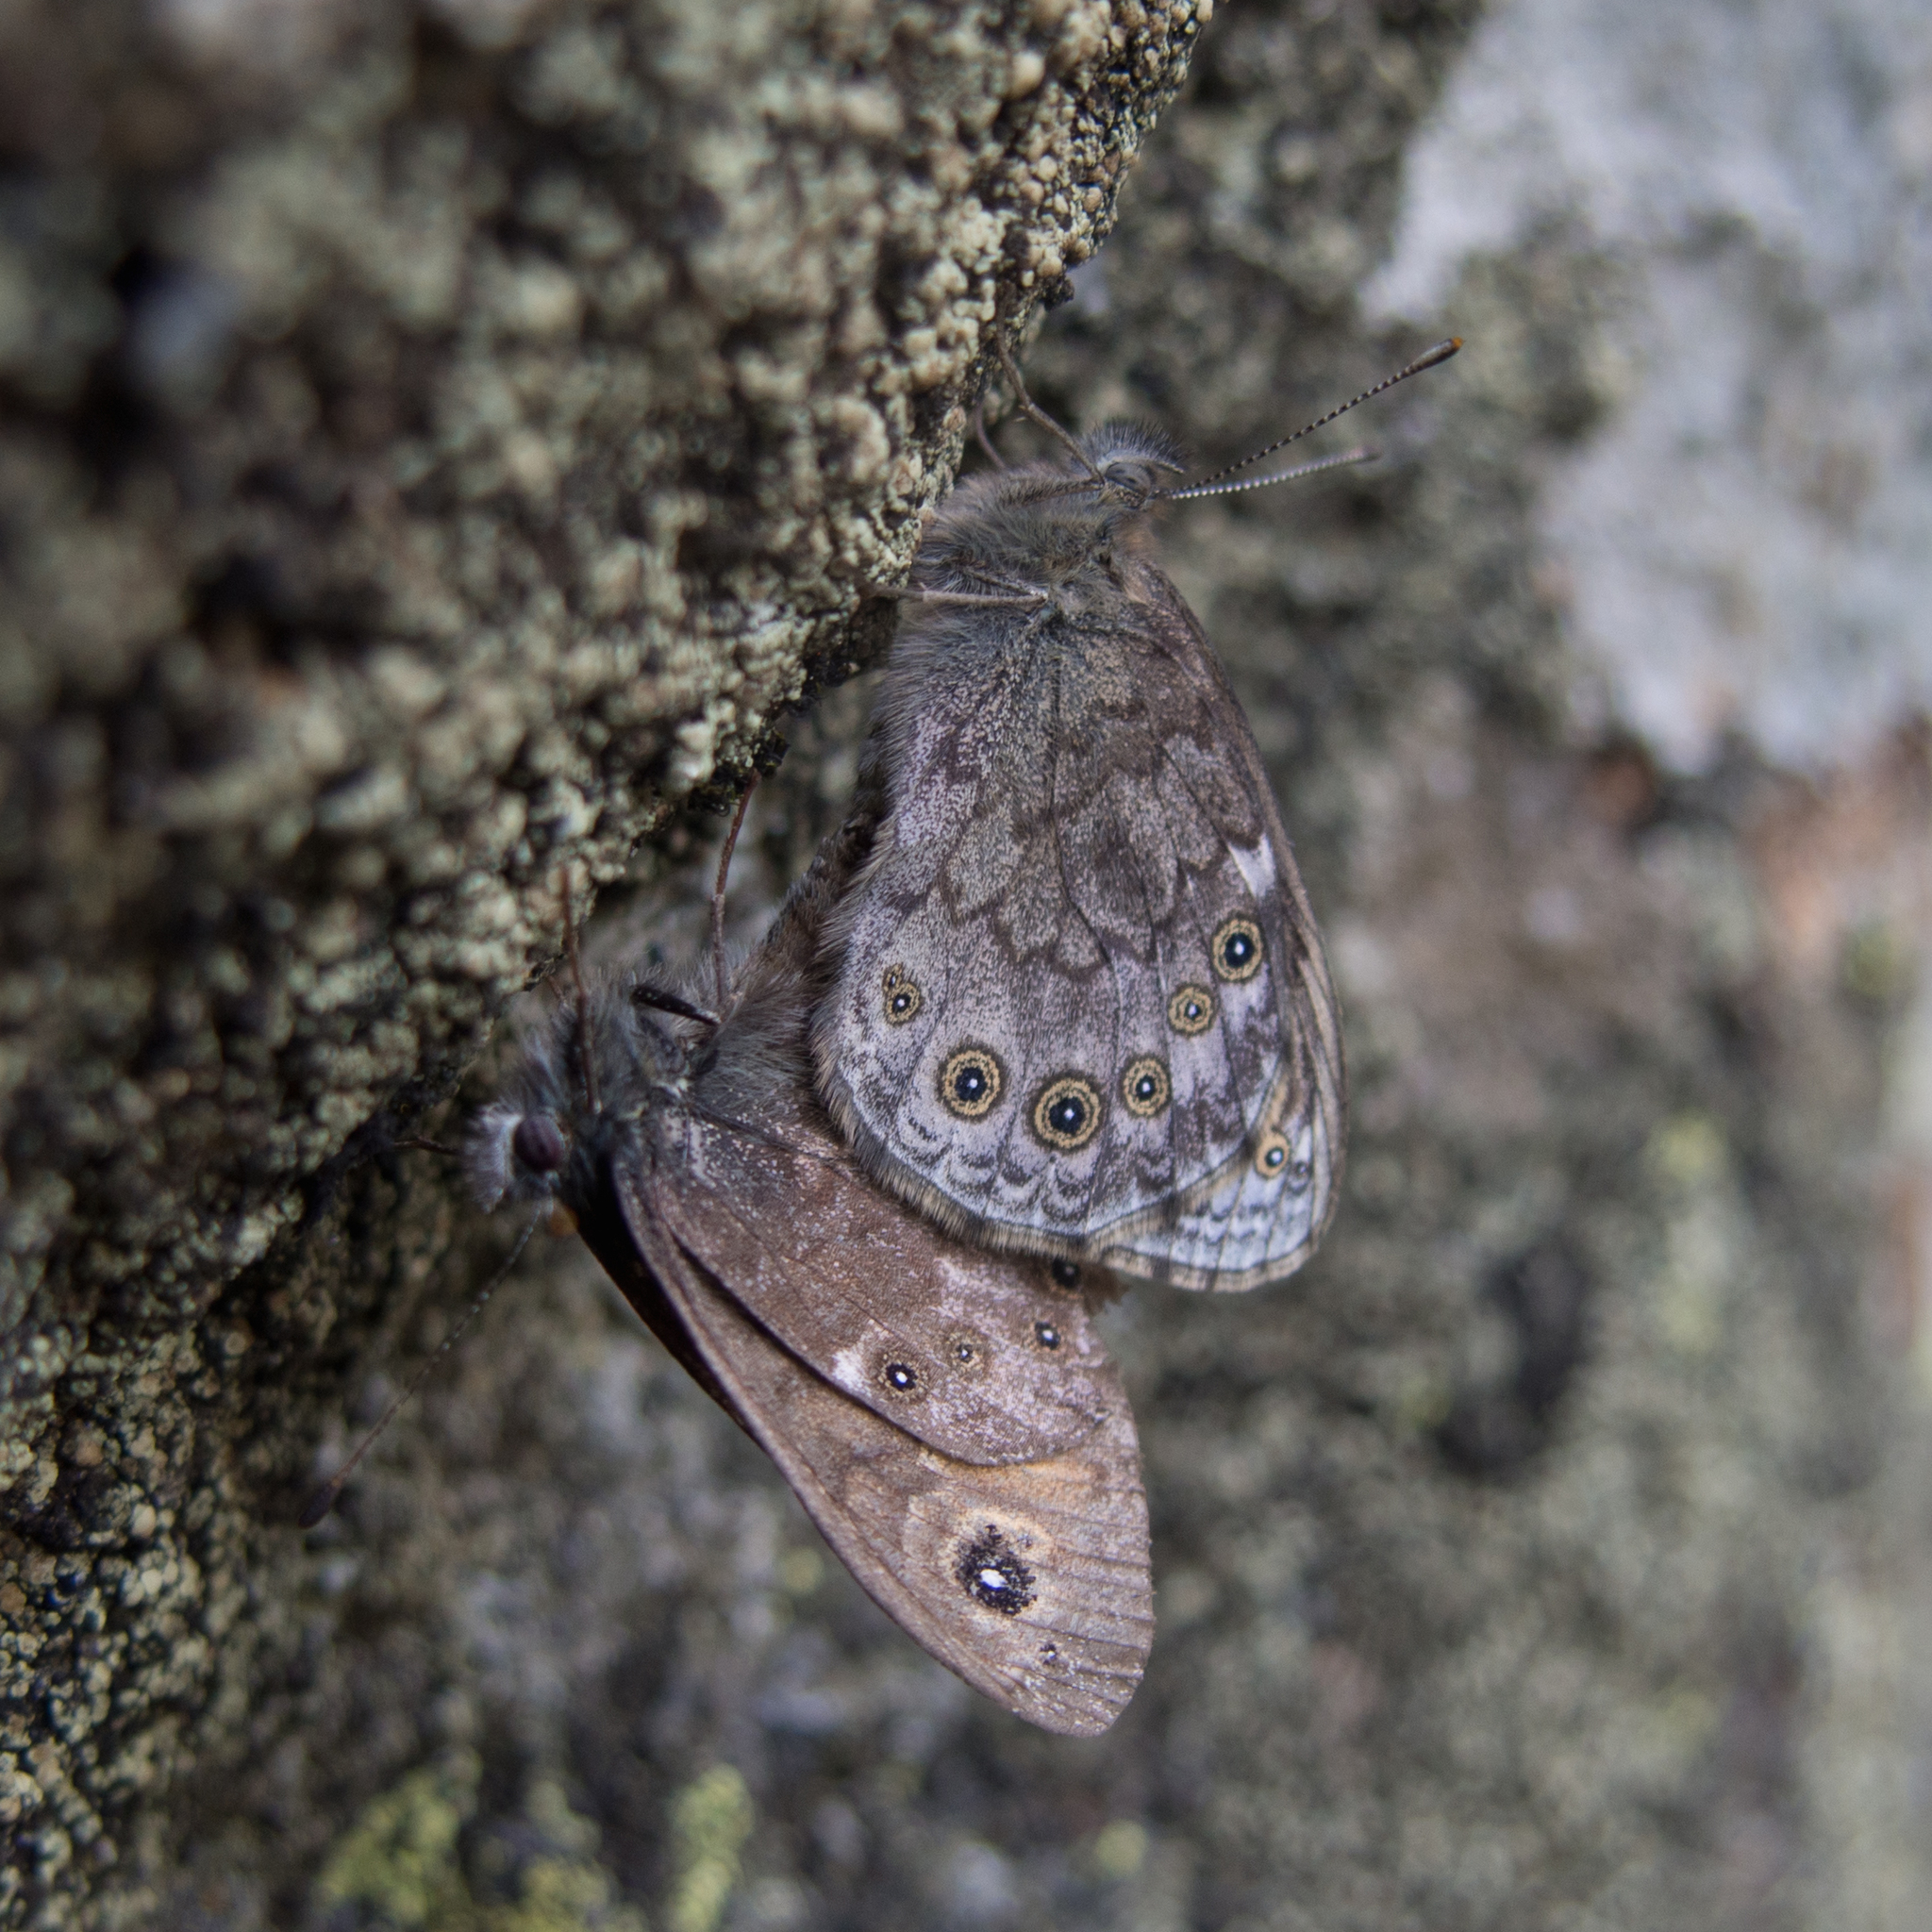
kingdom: Animalia
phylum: Arthropoda
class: Insecta
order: Lepidoptera
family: Nymphalidae
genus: Pararge
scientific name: Pararge petropolitana
